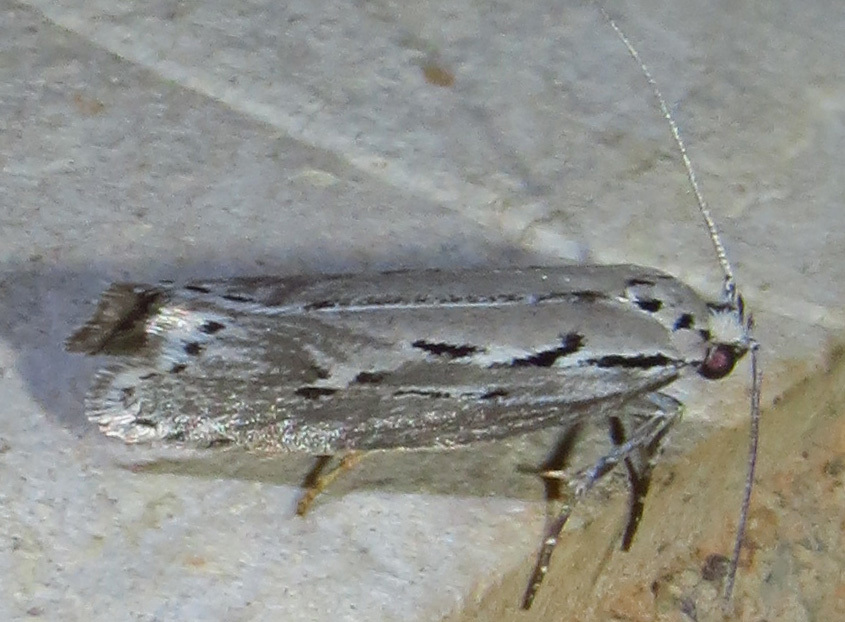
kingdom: Animalia
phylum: Arthropoda
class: Insecta
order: Lepidoptera
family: Ethmiidae
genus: Ethmia
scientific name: Ethmia discostrigella
